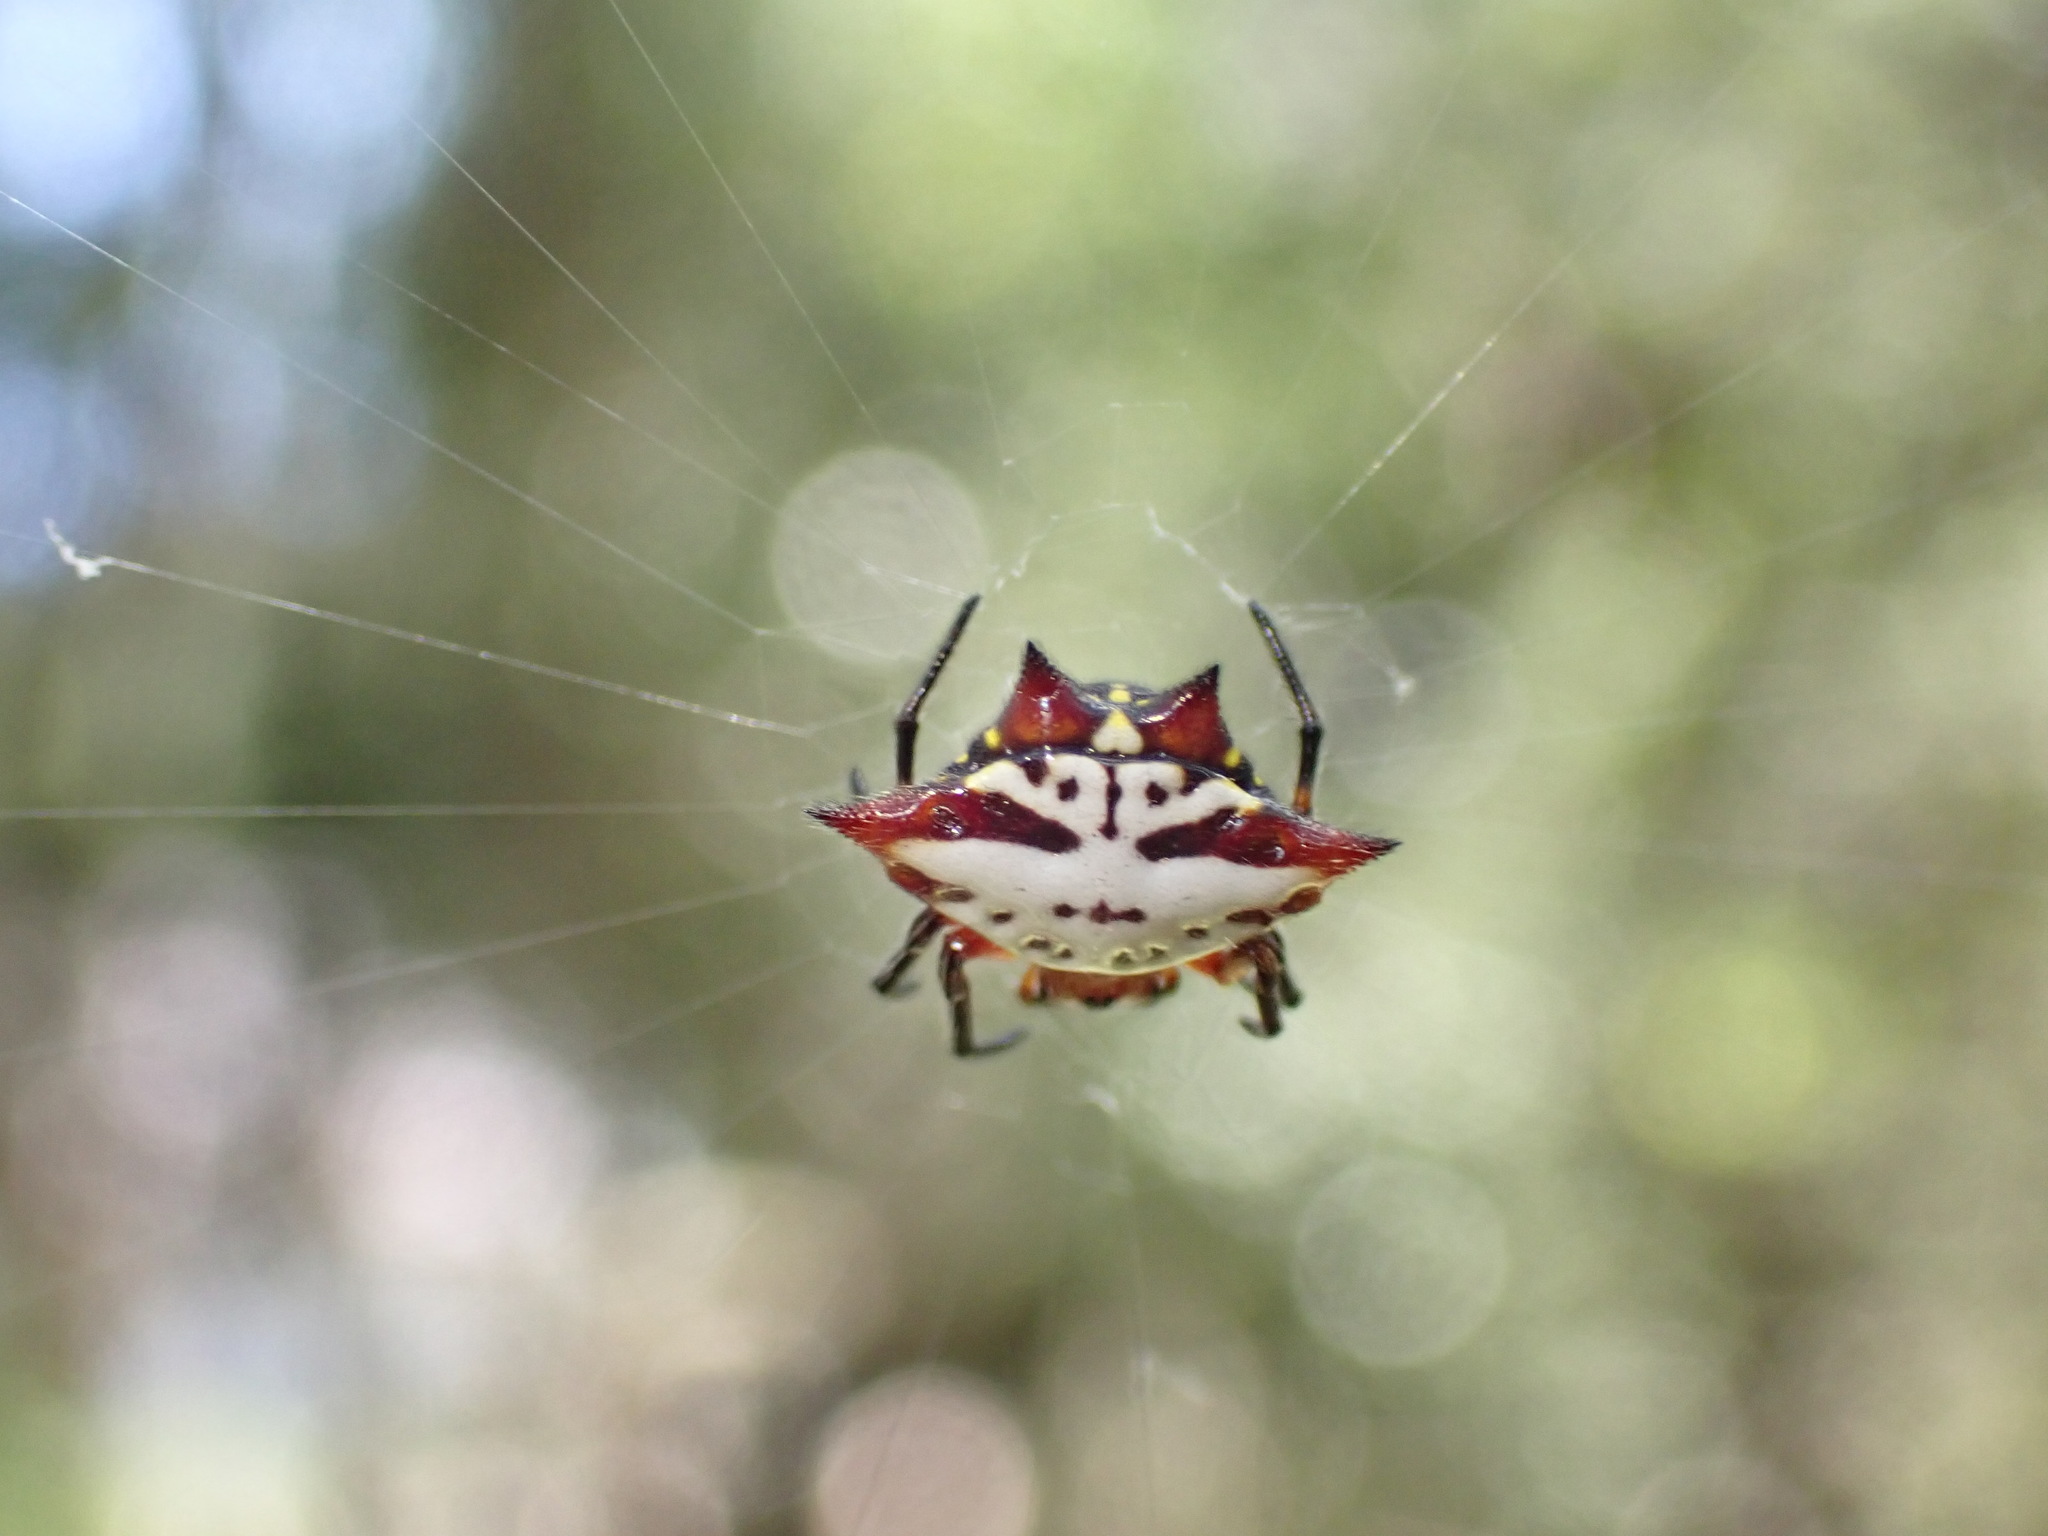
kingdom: Animalia
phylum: Arthropoda
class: Arachnida
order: Araneae
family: Araneidae
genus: Gasteracantha
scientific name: Gasteracantha sanguinolenta
